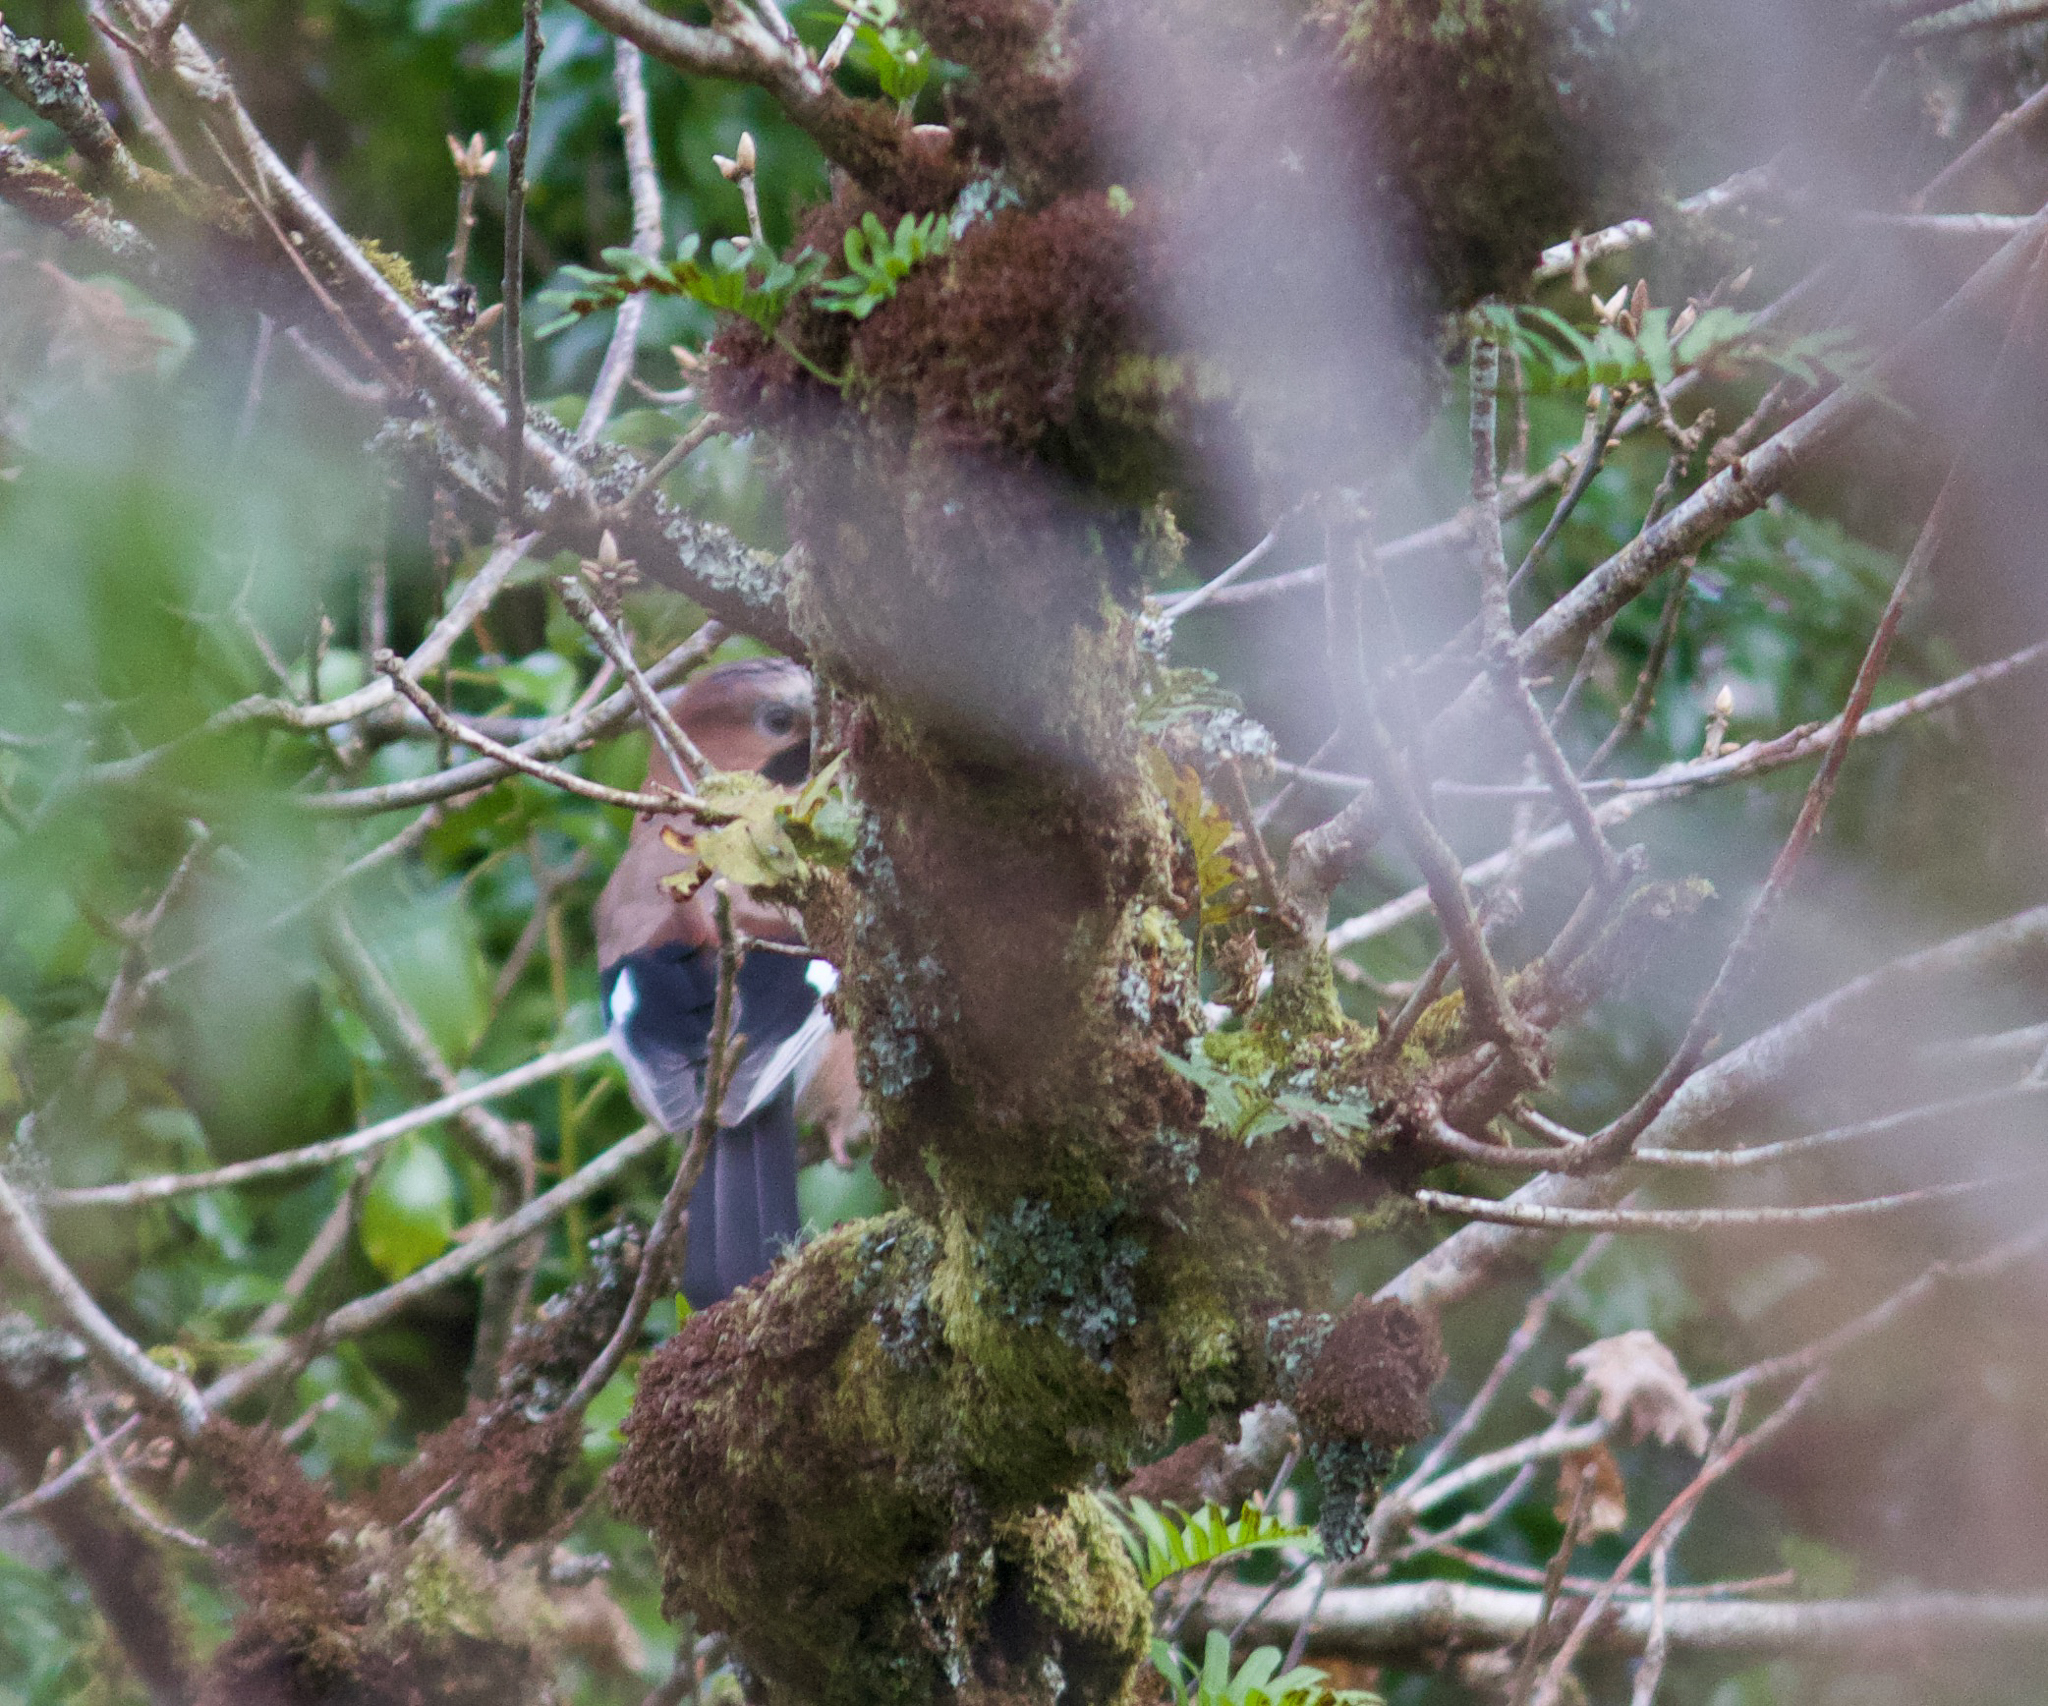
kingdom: Animalia
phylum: Chordata
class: Aves
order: Passeriformes
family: Corvidae
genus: Garrulus
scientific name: Garrulus glandarius
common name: Eurasian jay
